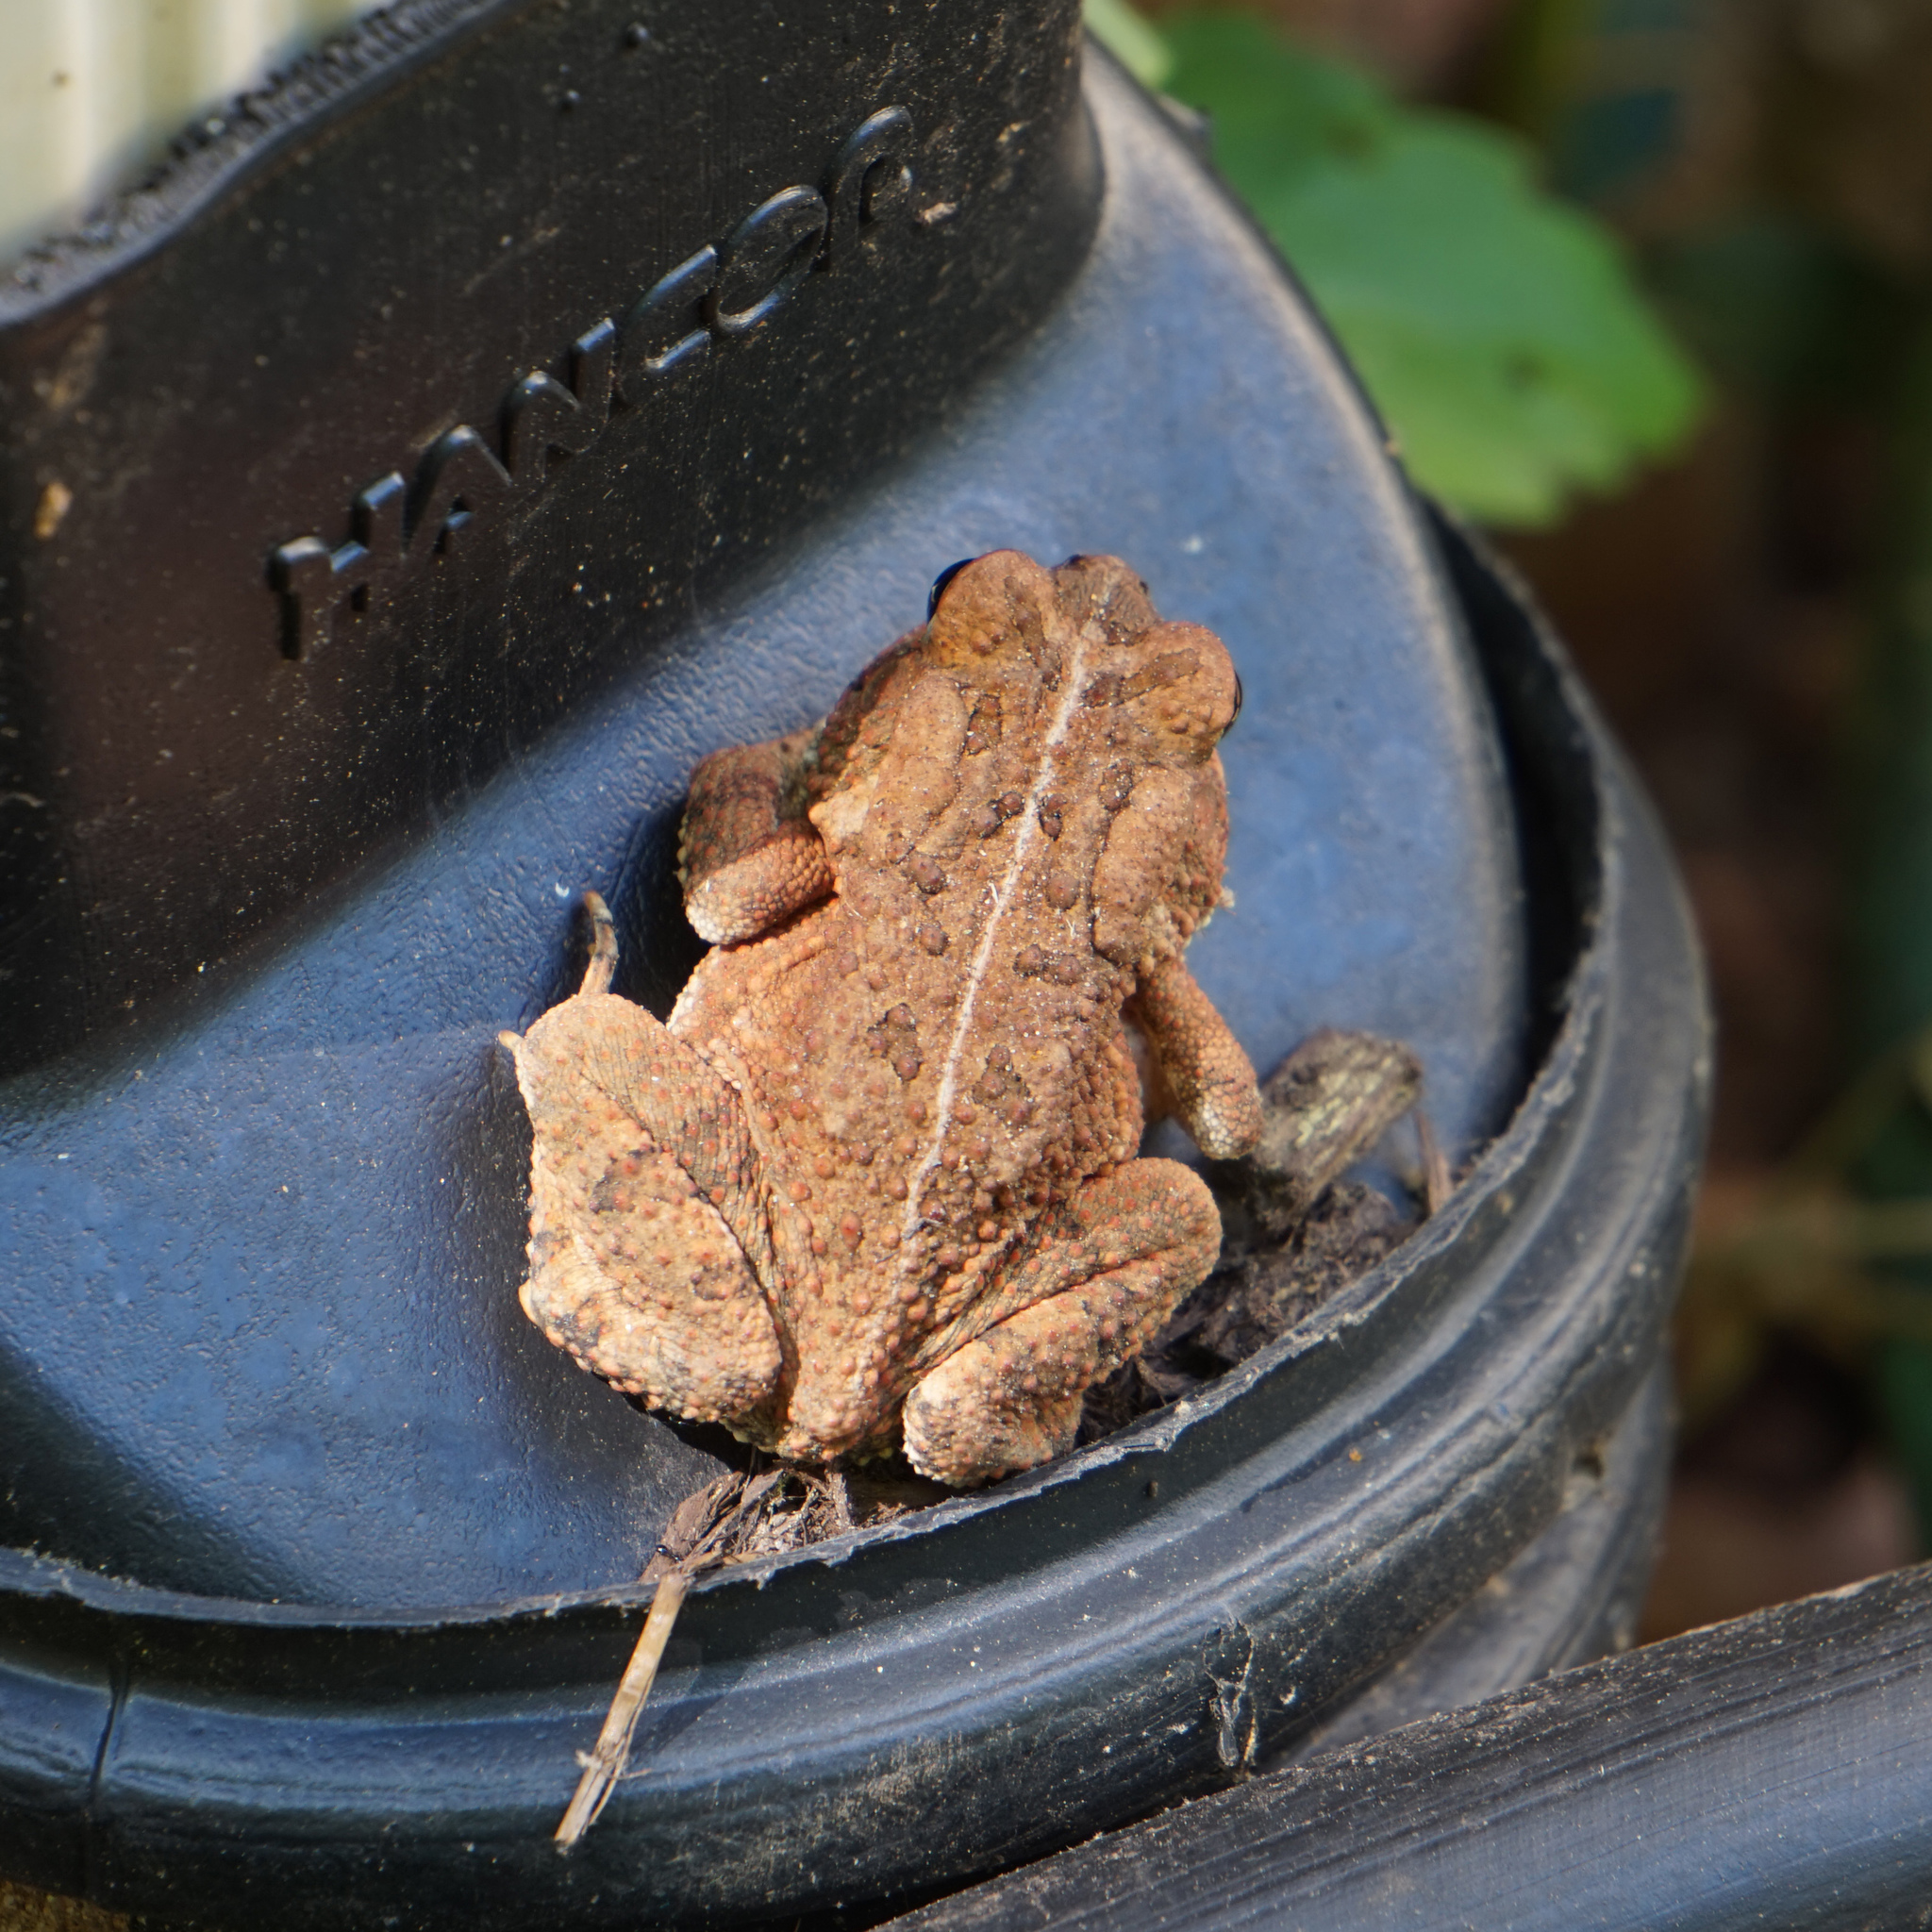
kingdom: Animalia
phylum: Chordata
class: Amphibia
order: Anura
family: Bufonidae
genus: Anaxyrus
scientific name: Anaxyrus fowleri
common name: Fowler's toad
